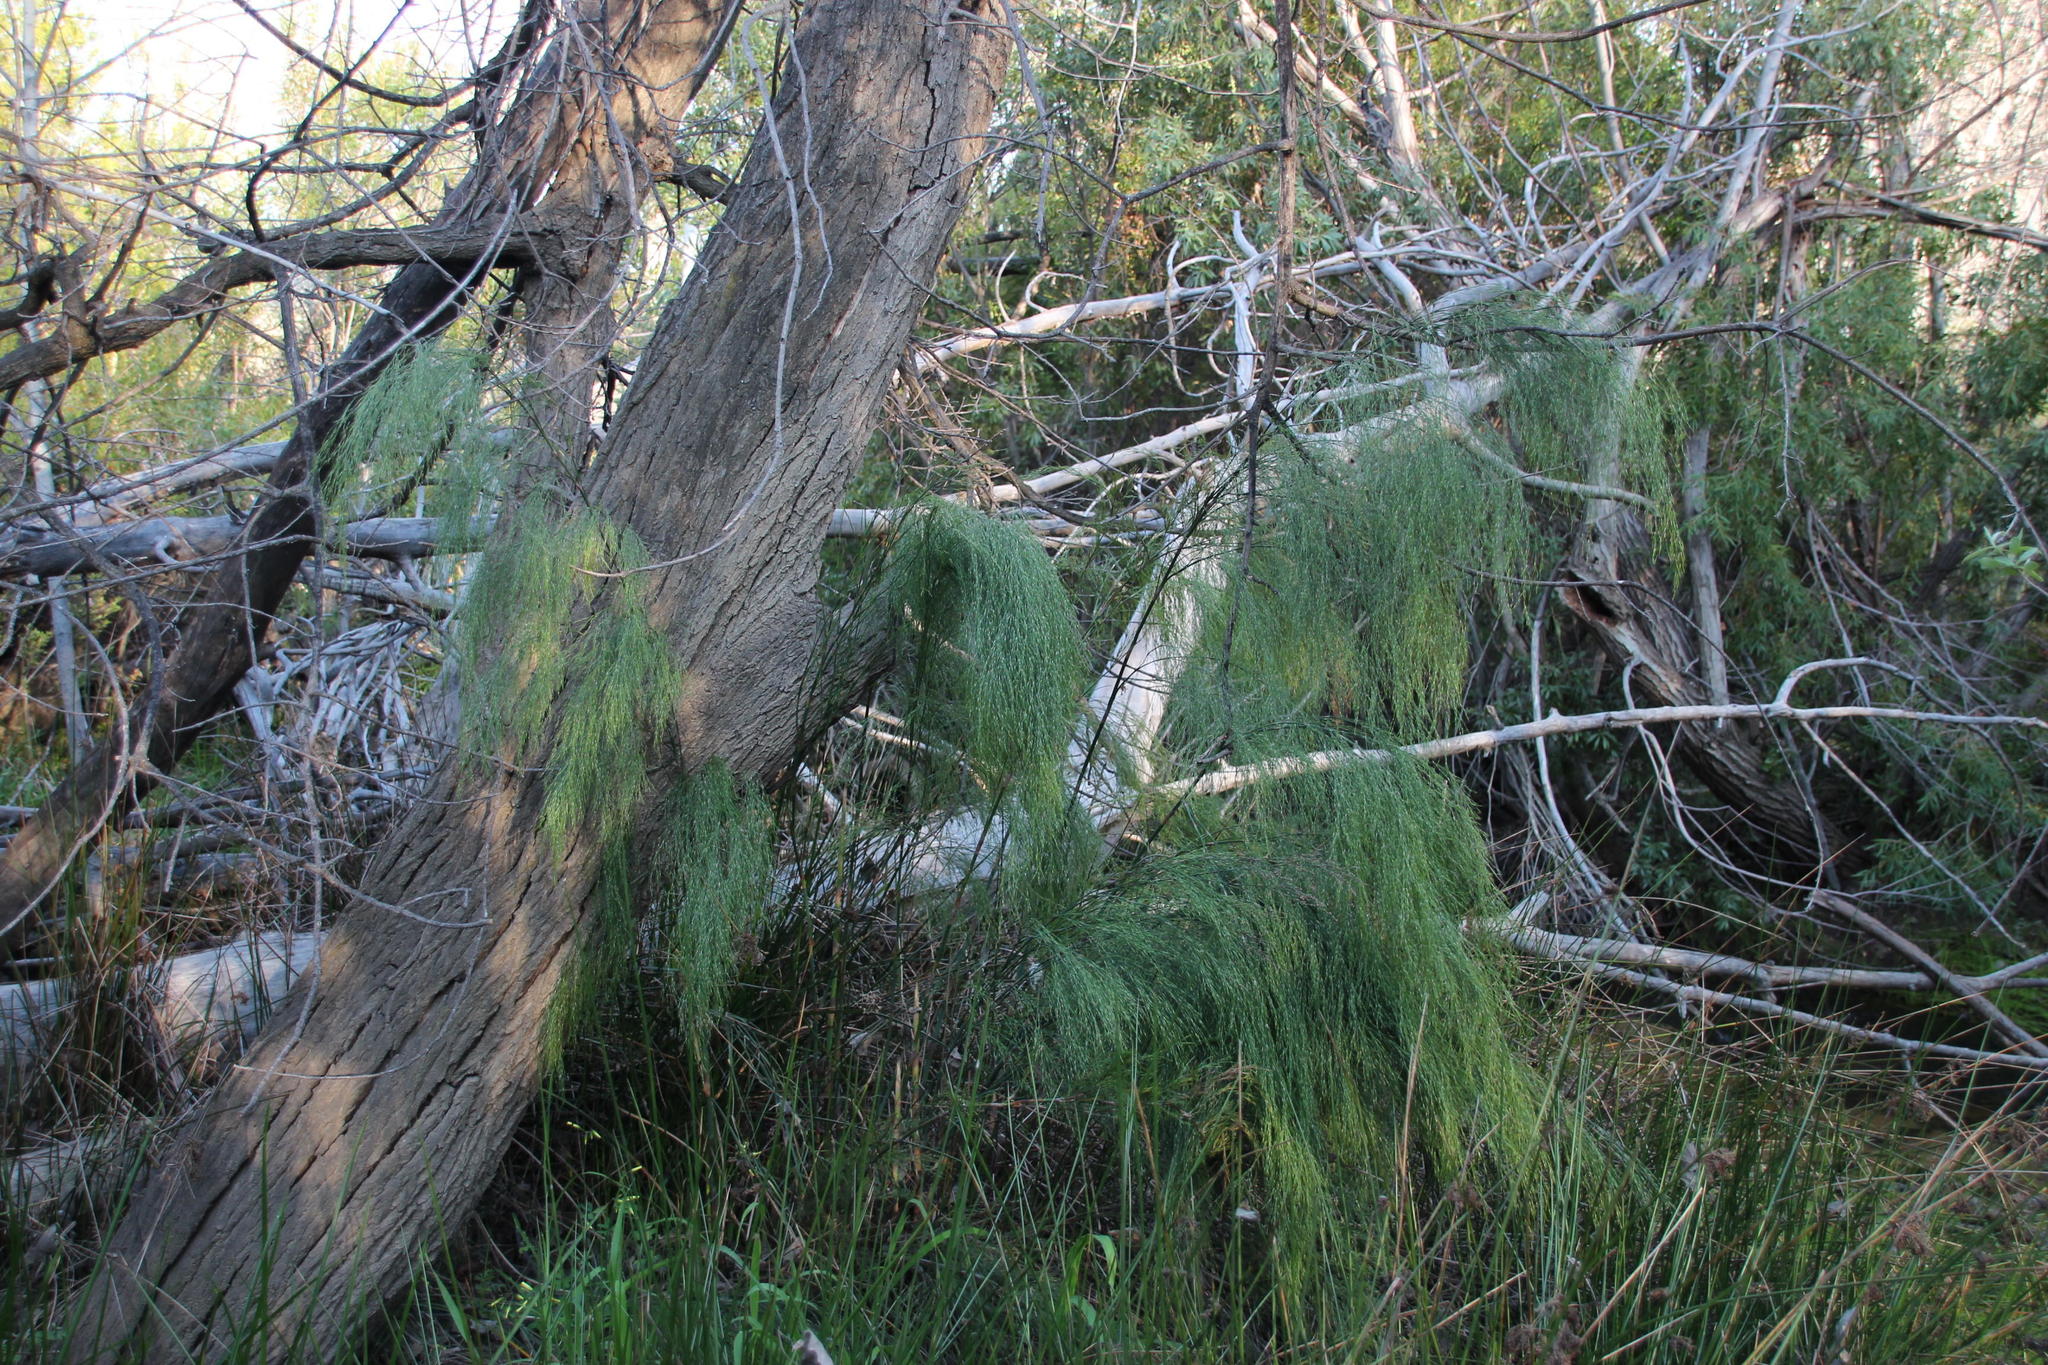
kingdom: Plantae
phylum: Tracheophyta
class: Liliopsida
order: Poales
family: Restionaceae
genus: Restio
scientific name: Restio paniculatus
